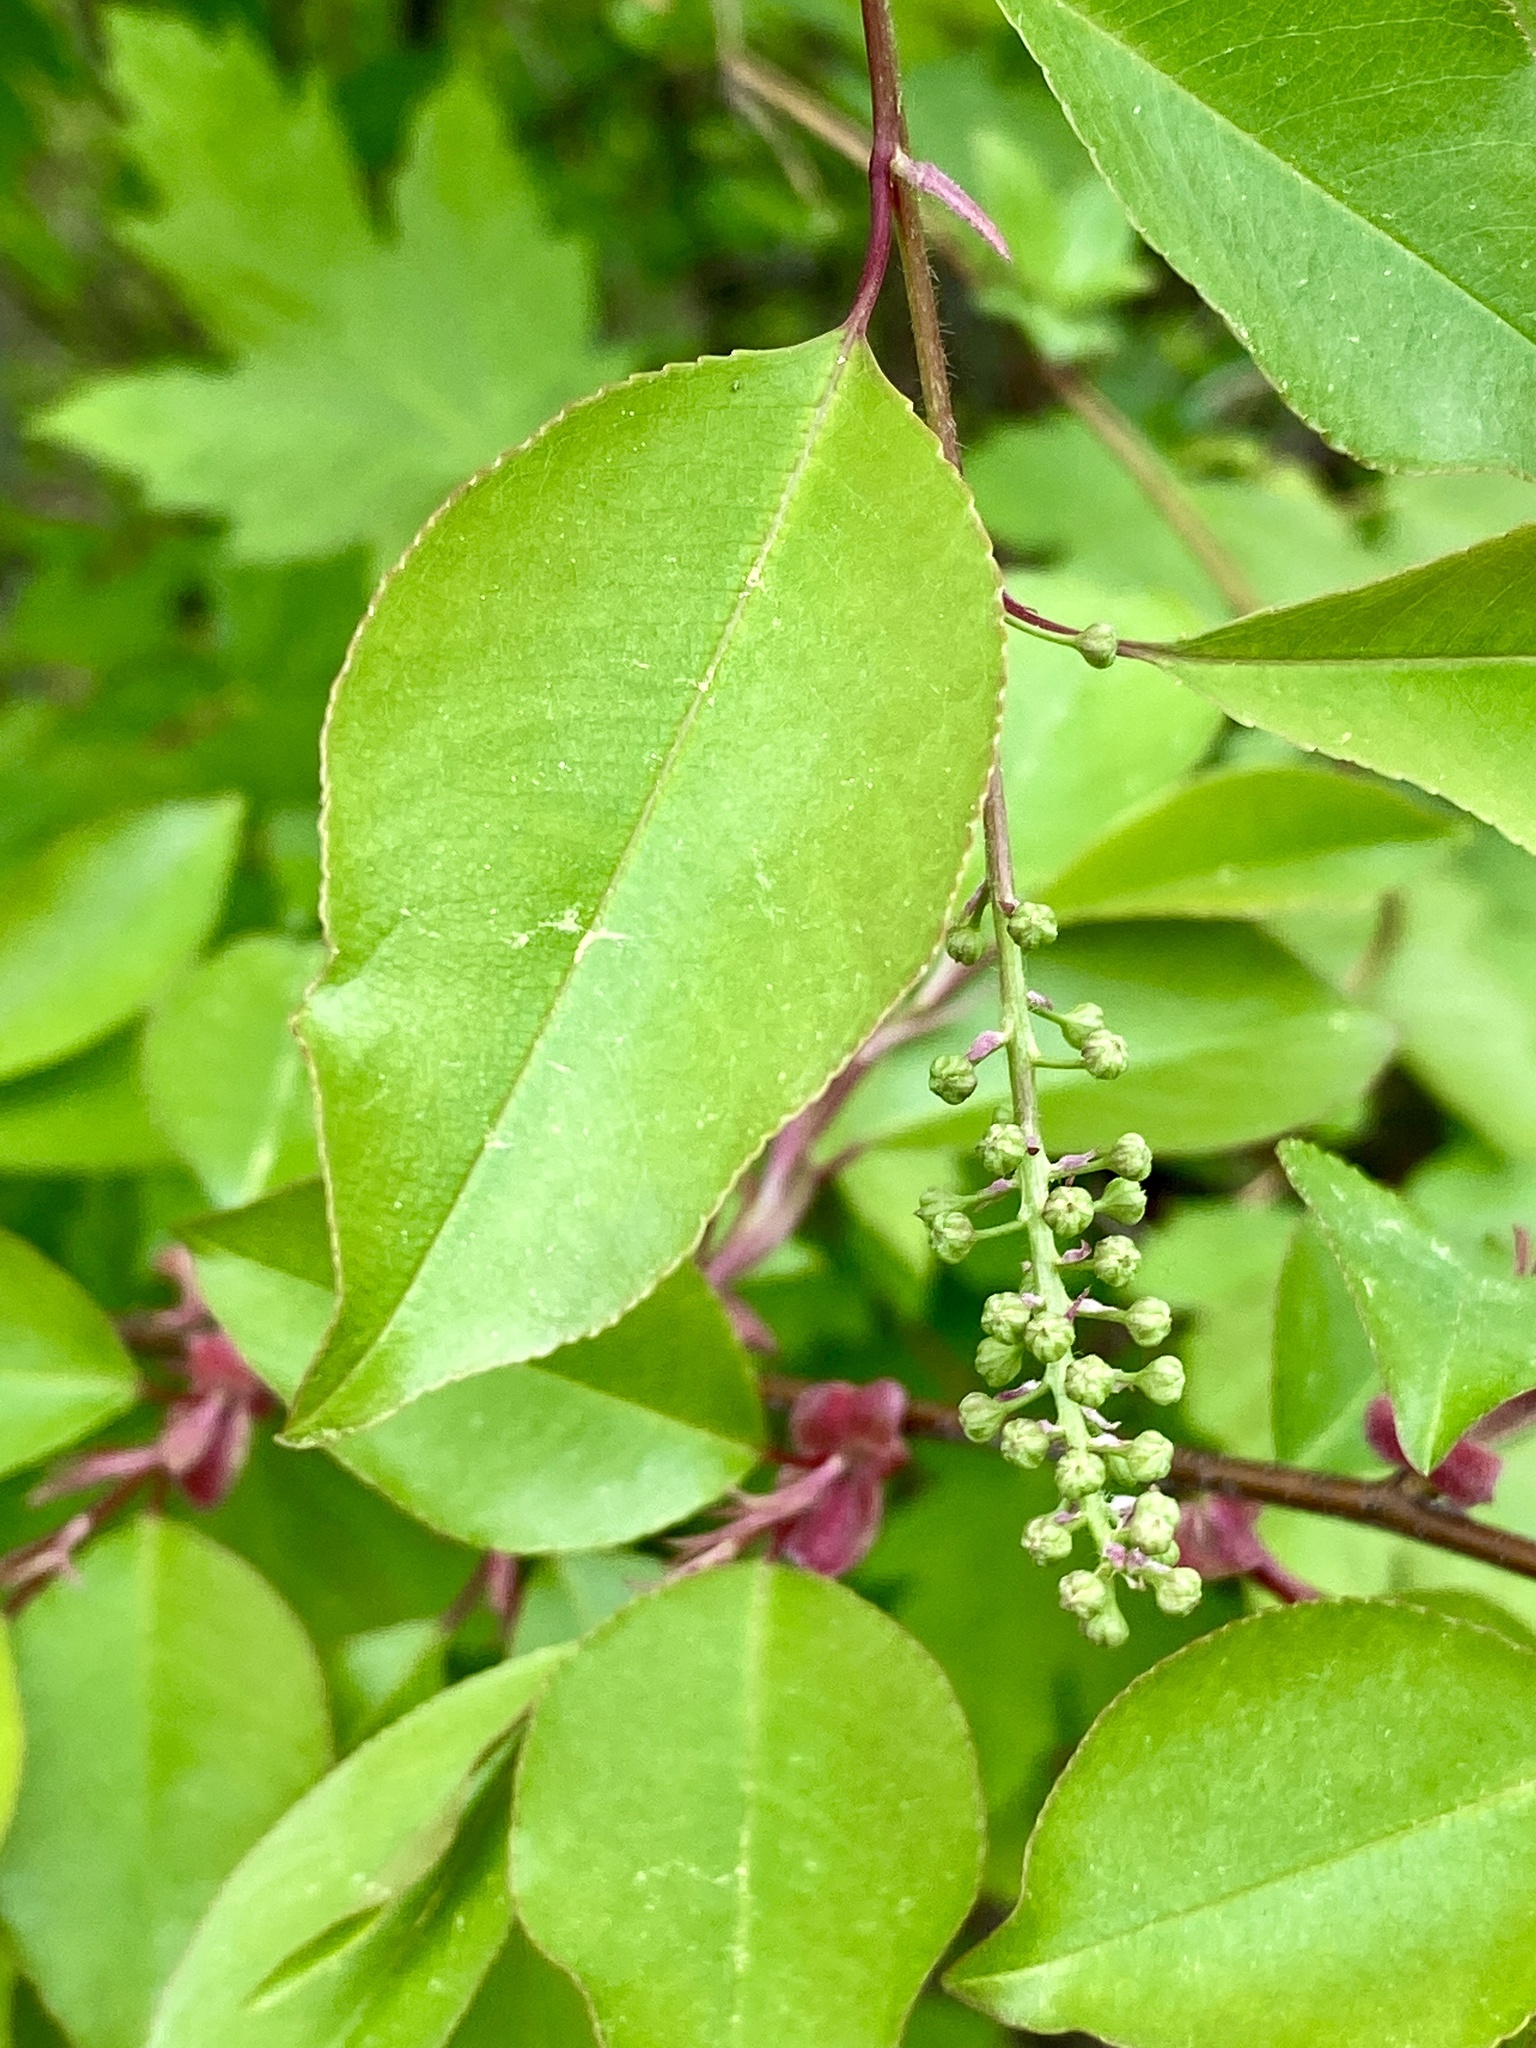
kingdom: Plantae
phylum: Tracheophyta
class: Magnoliopsida
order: Rosales
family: Rosaceae
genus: Prunus
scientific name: Prunus serotina
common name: Black cherry
